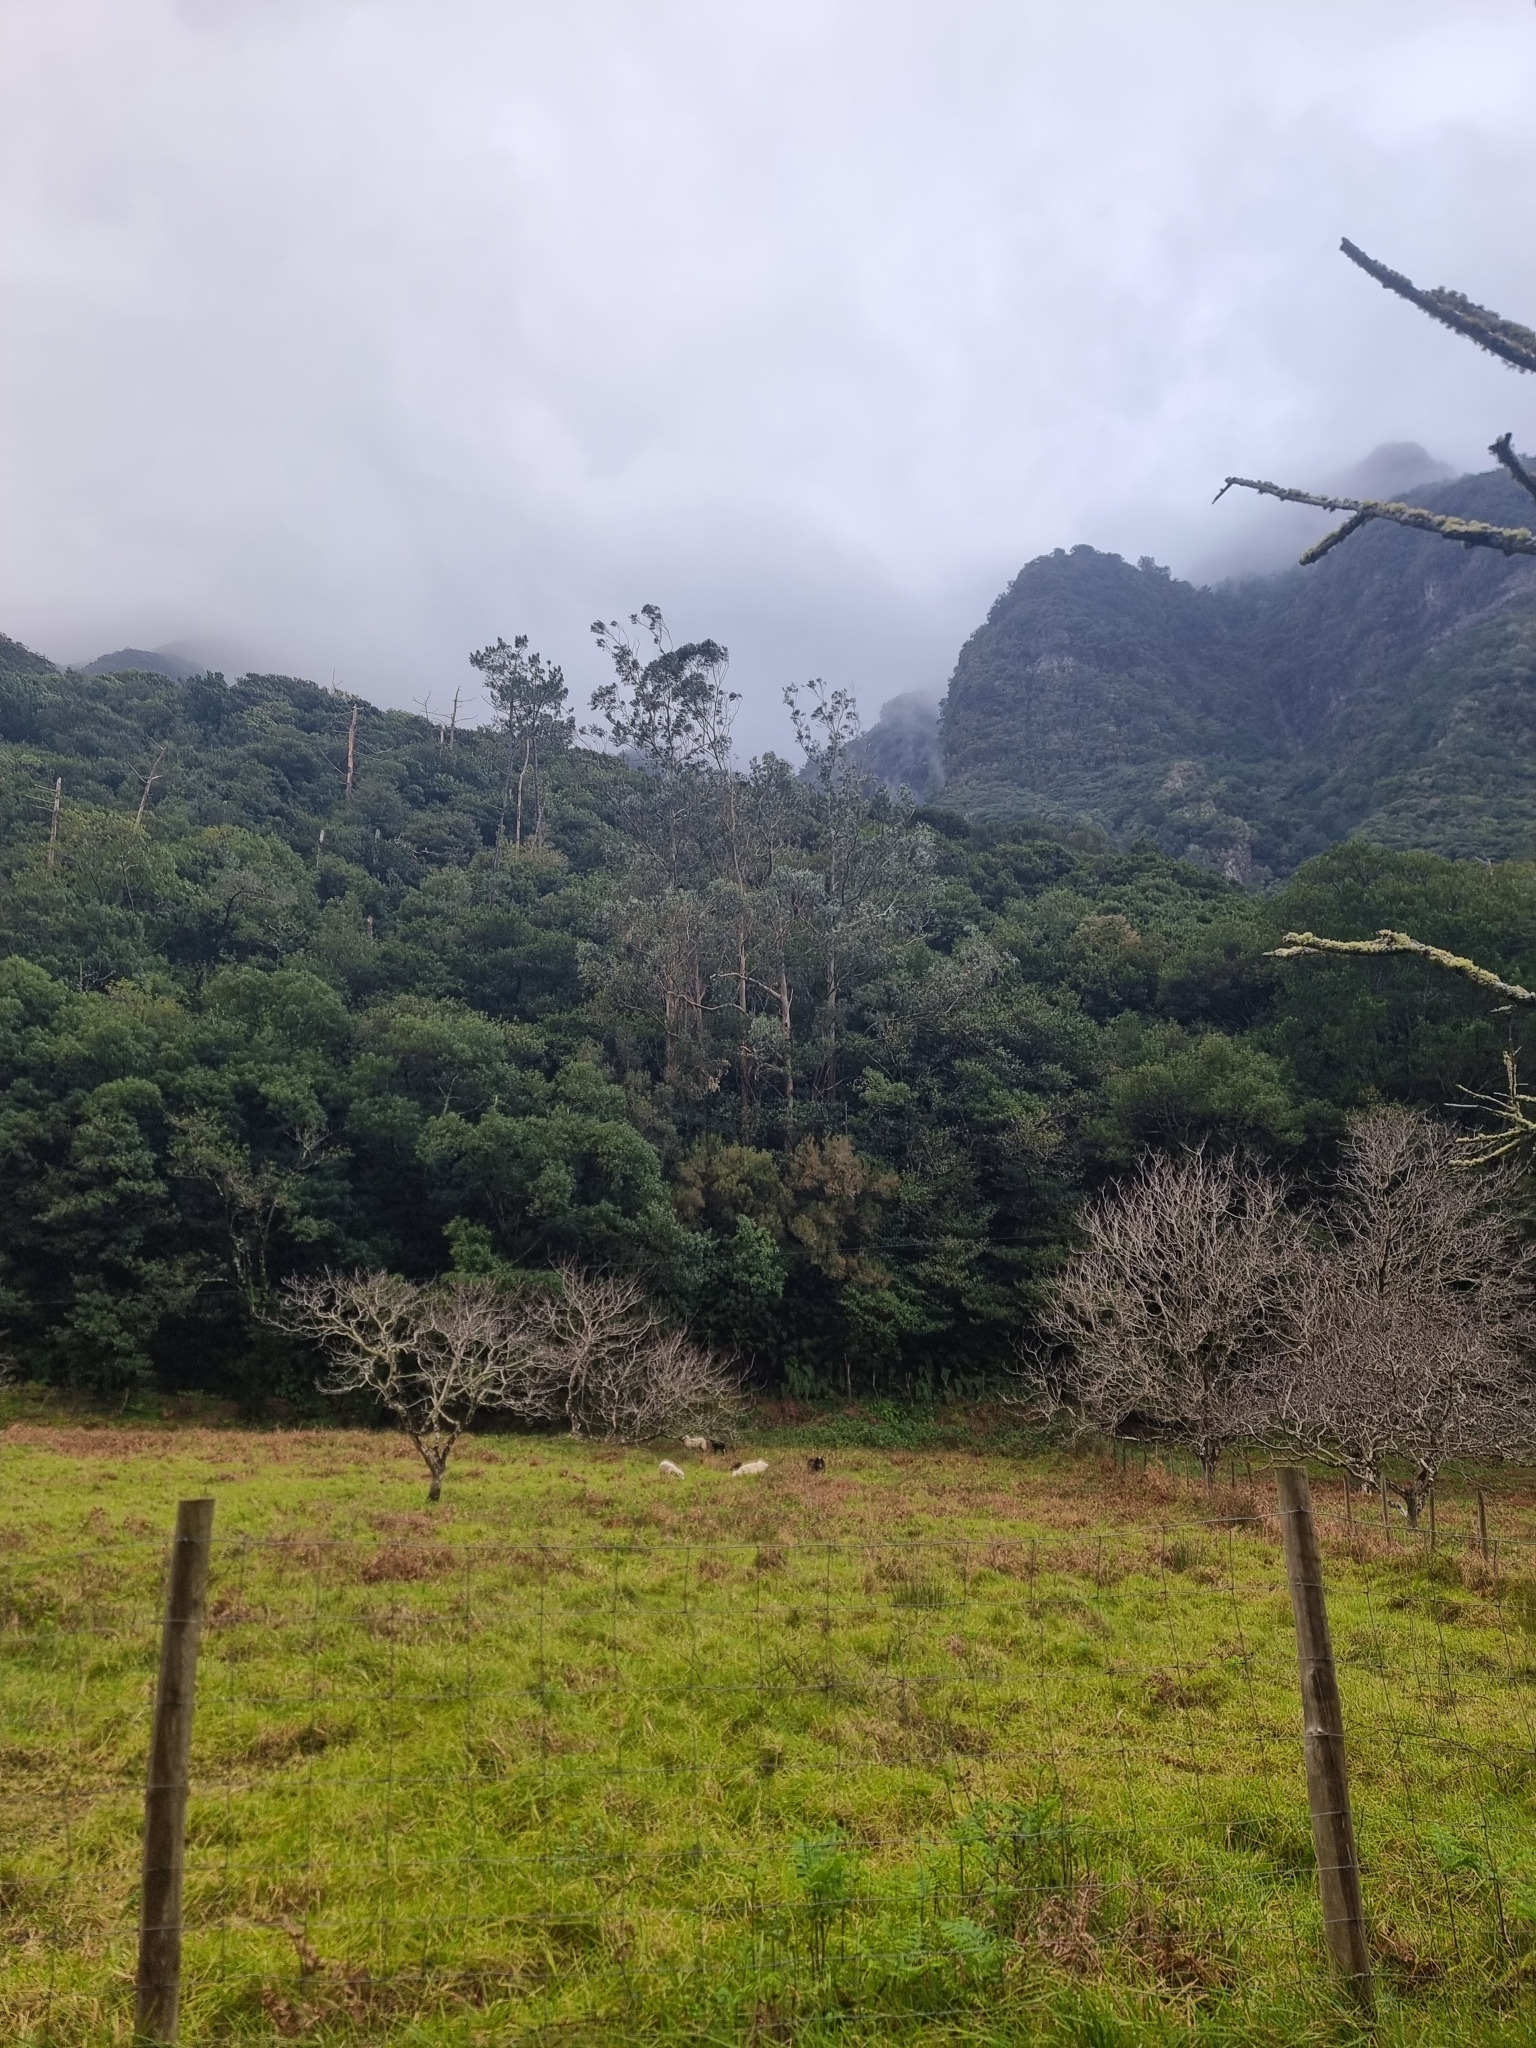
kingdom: Plantae
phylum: Tracheophyta
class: Magnoliopsida
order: Myrtales
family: Myrtaceae
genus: Eucalyptus
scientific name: Eucalyptus globulus
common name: Southern blue-gum
